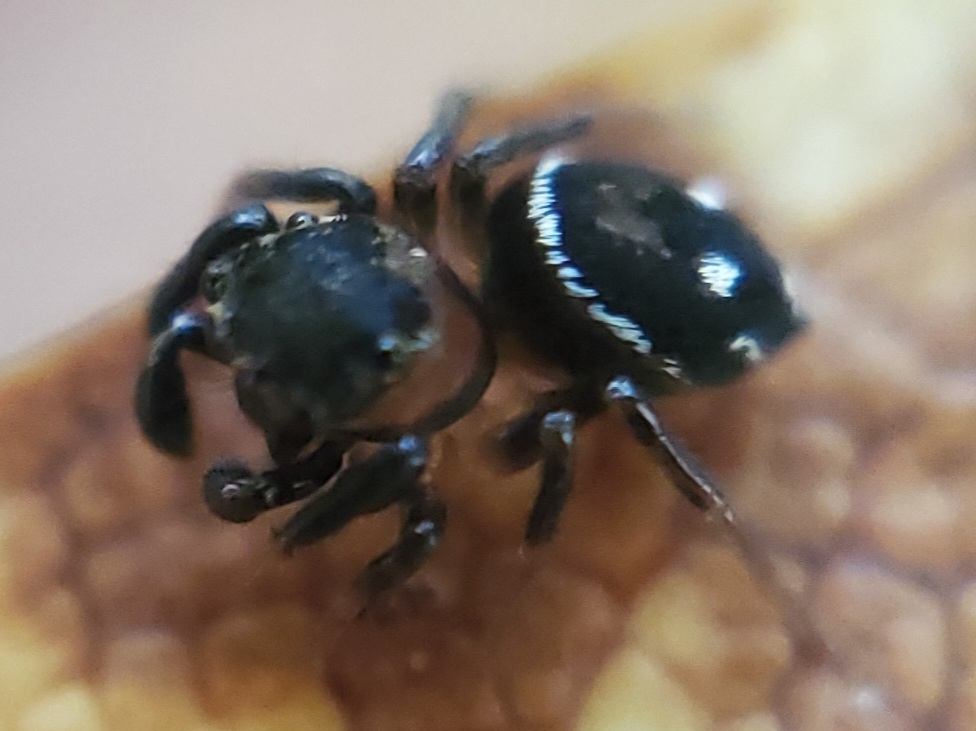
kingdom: Animalia
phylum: Arthropoda
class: Arachnida
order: Araneae
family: Salticidae
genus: Chinattus
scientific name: Chinattus parvulus
